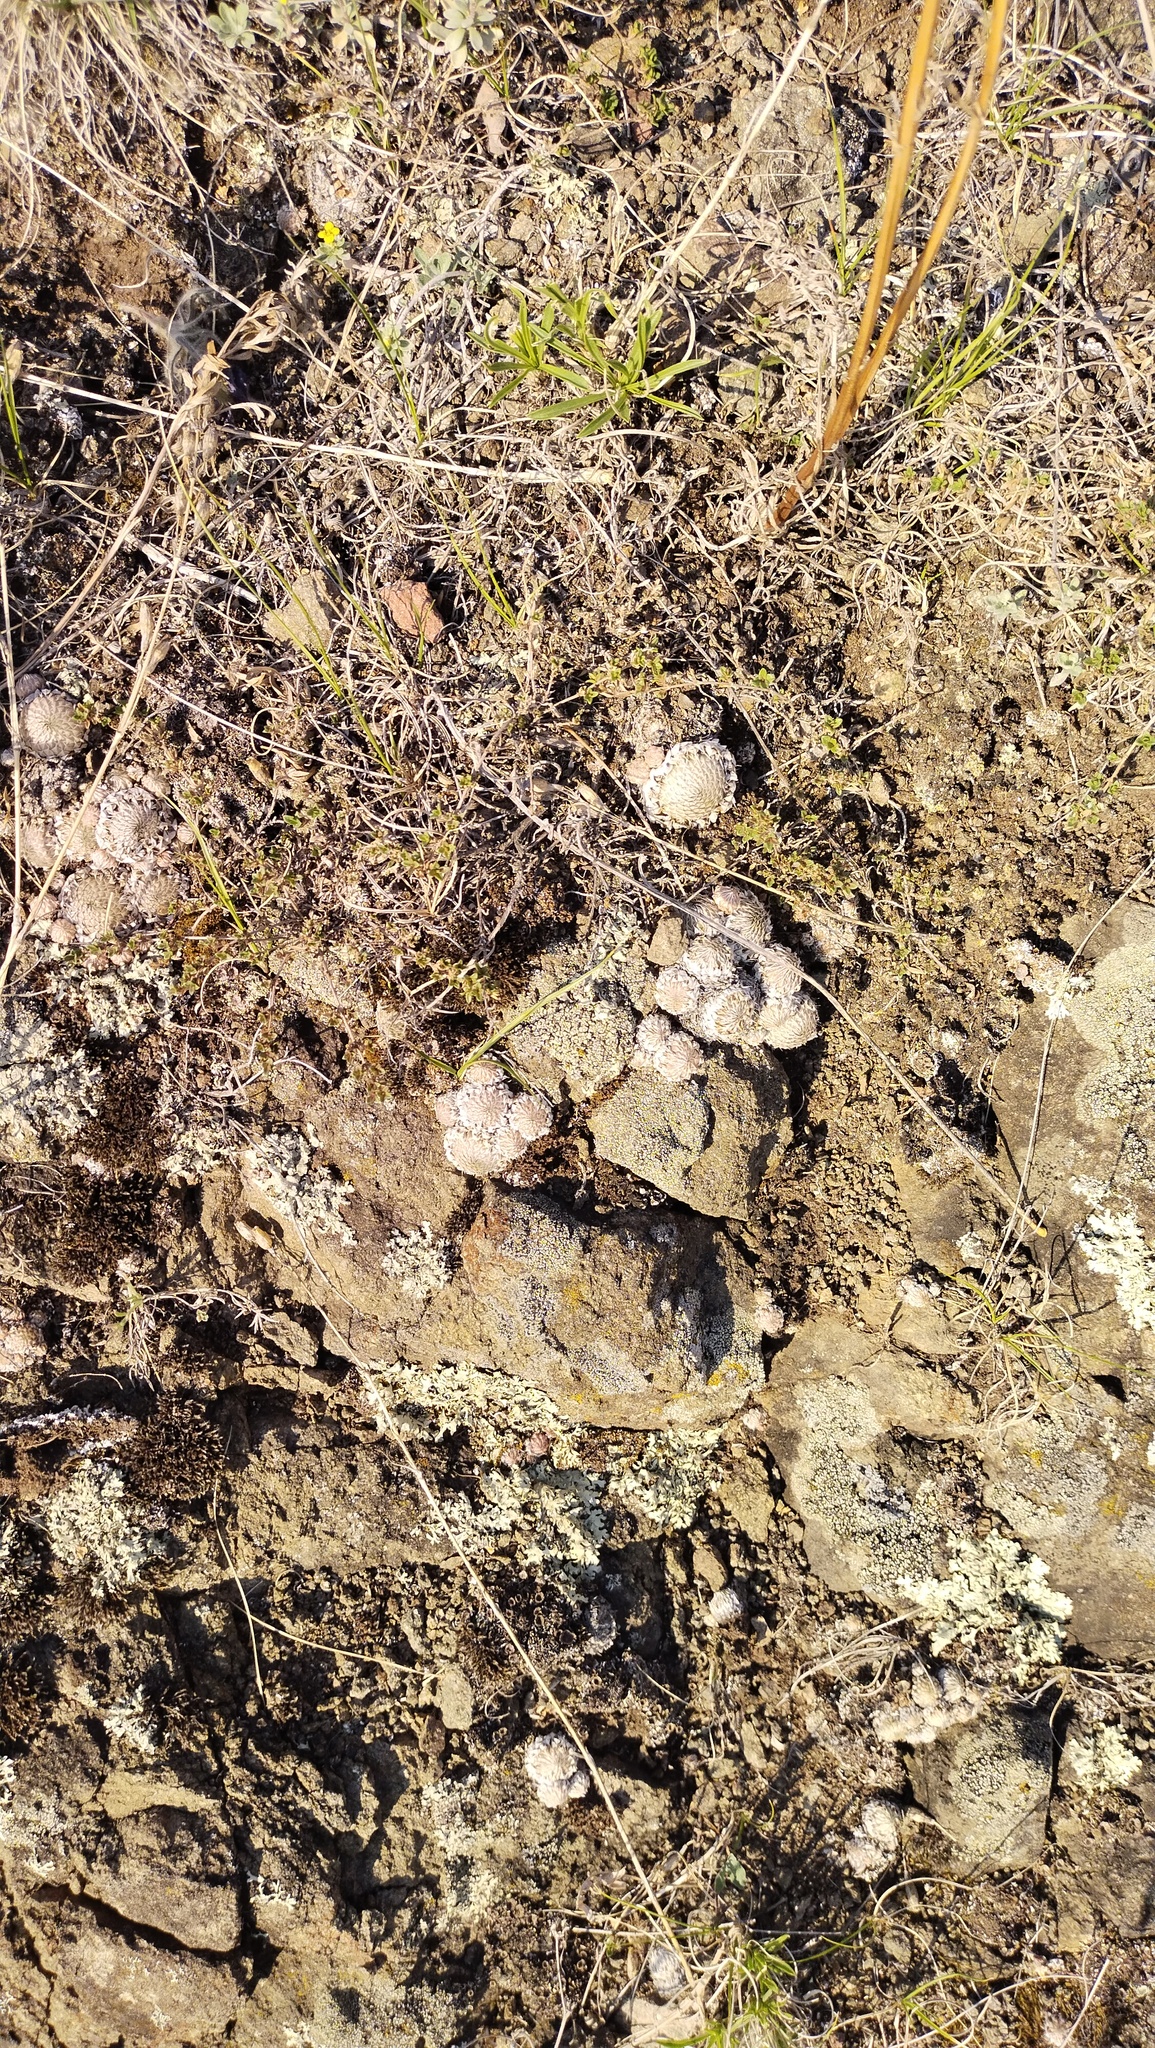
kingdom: Plantae
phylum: Tracheophyta
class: Magnoliopsida
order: Saxifragales
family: Crassulaceae
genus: Orostachys
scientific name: Orostachys spinosa
